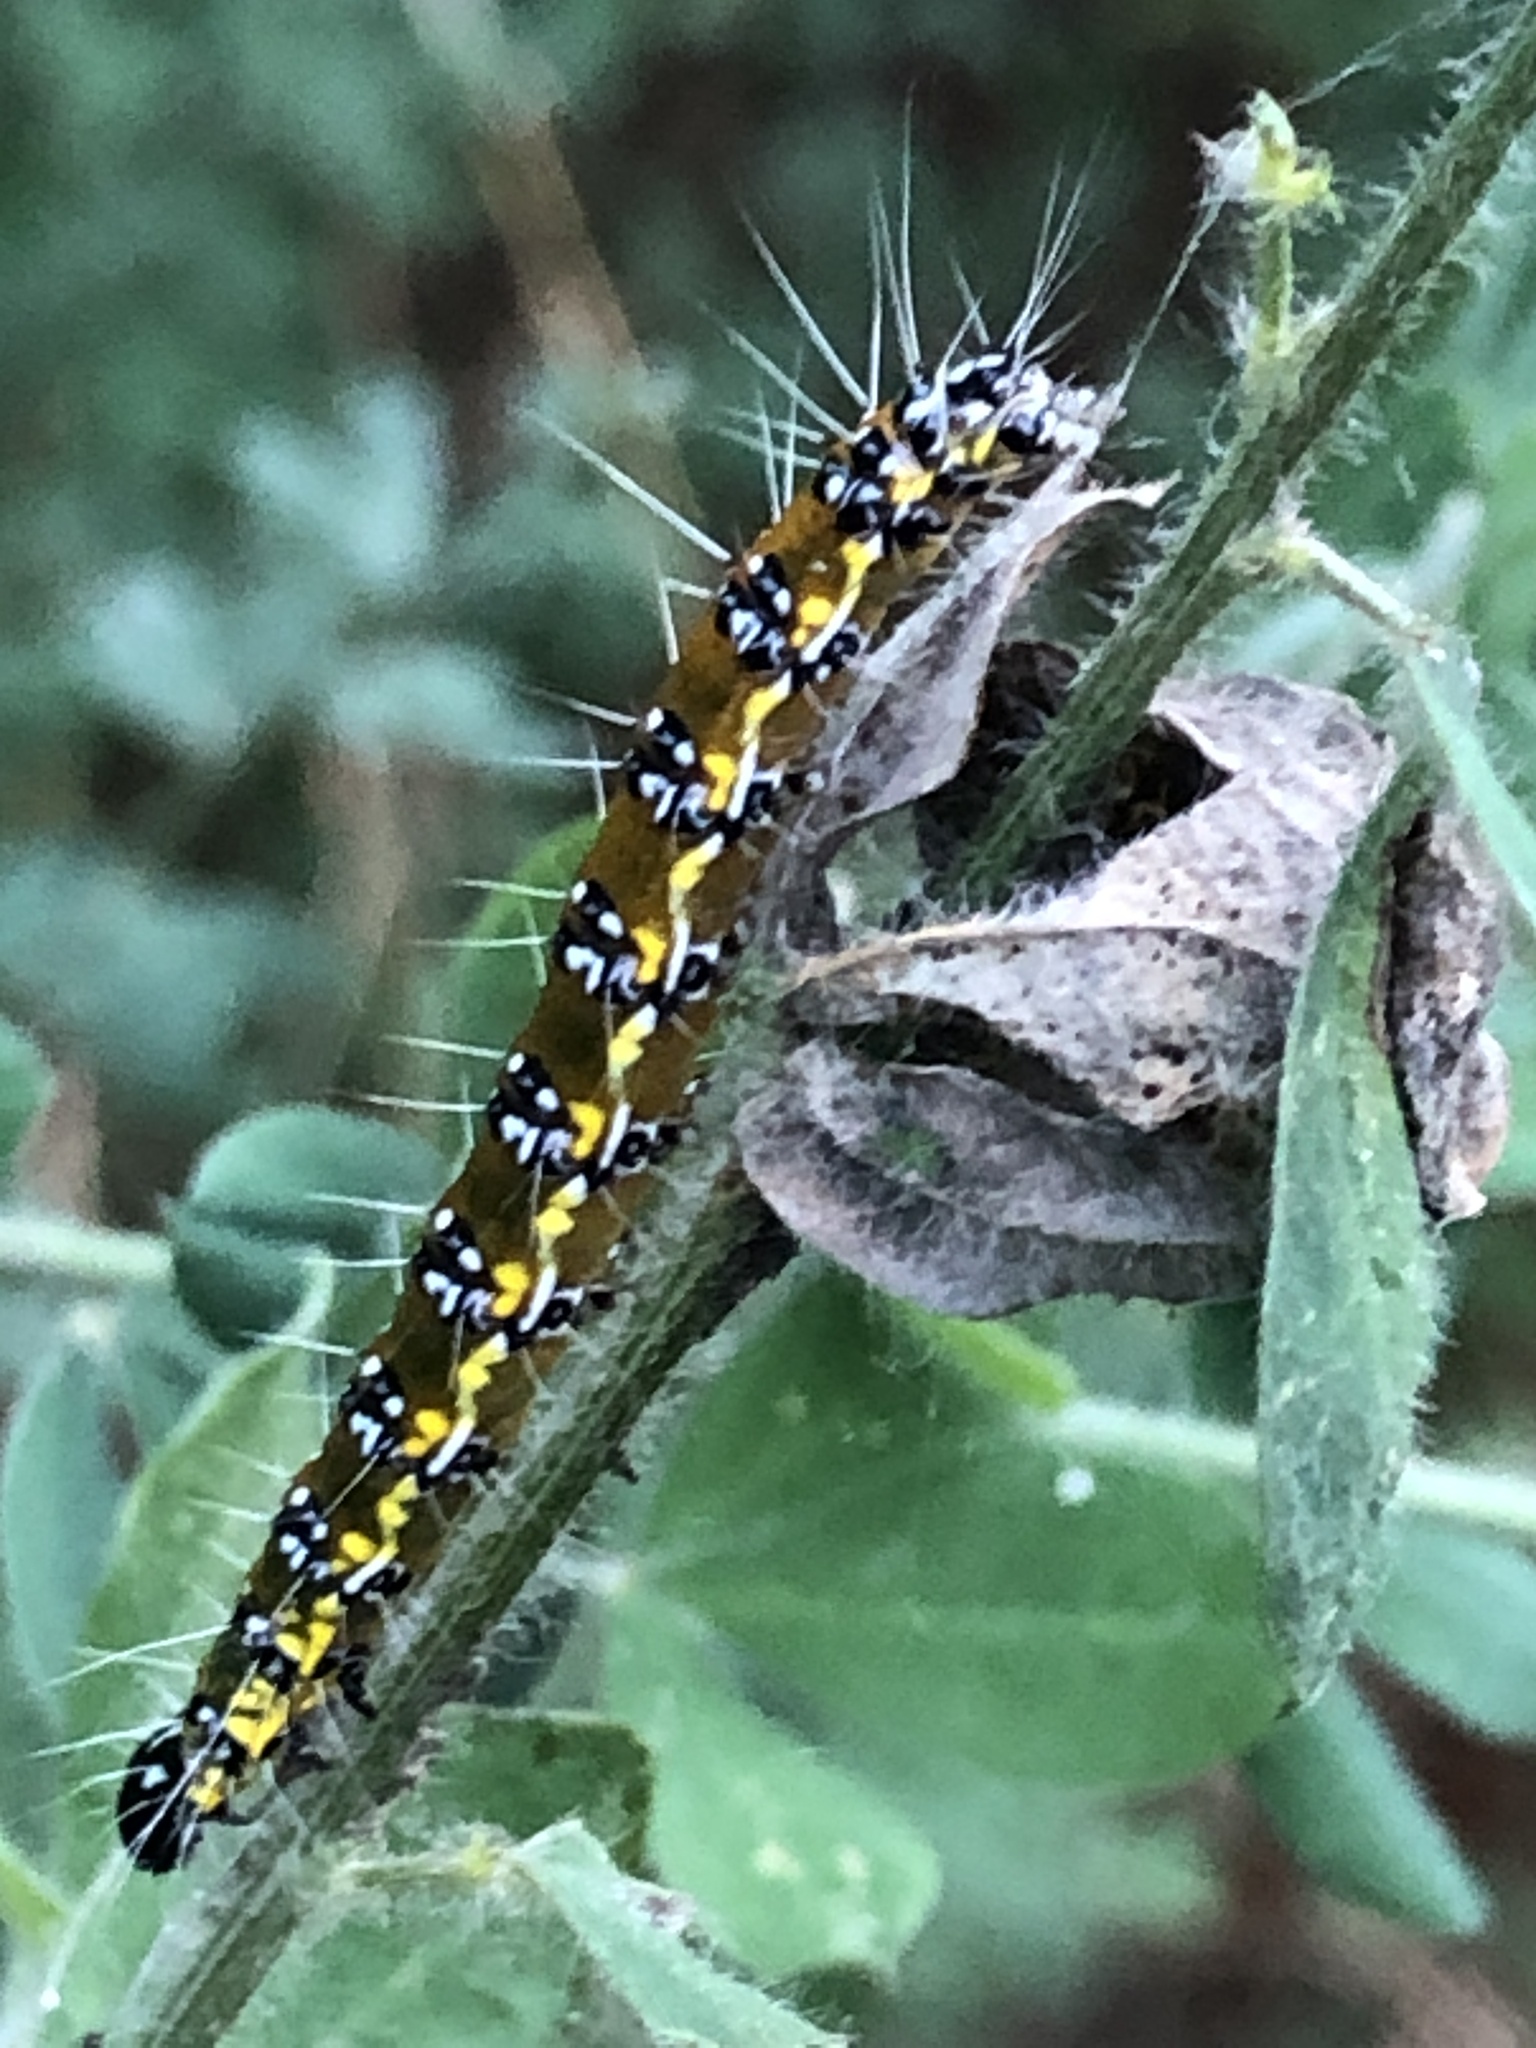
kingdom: Animalia
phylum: Arthropoda
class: Insecta
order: Lepidoptera
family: Crambidae
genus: Uresiphita
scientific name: Uresiphita reversalis
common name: Genista broom moth
